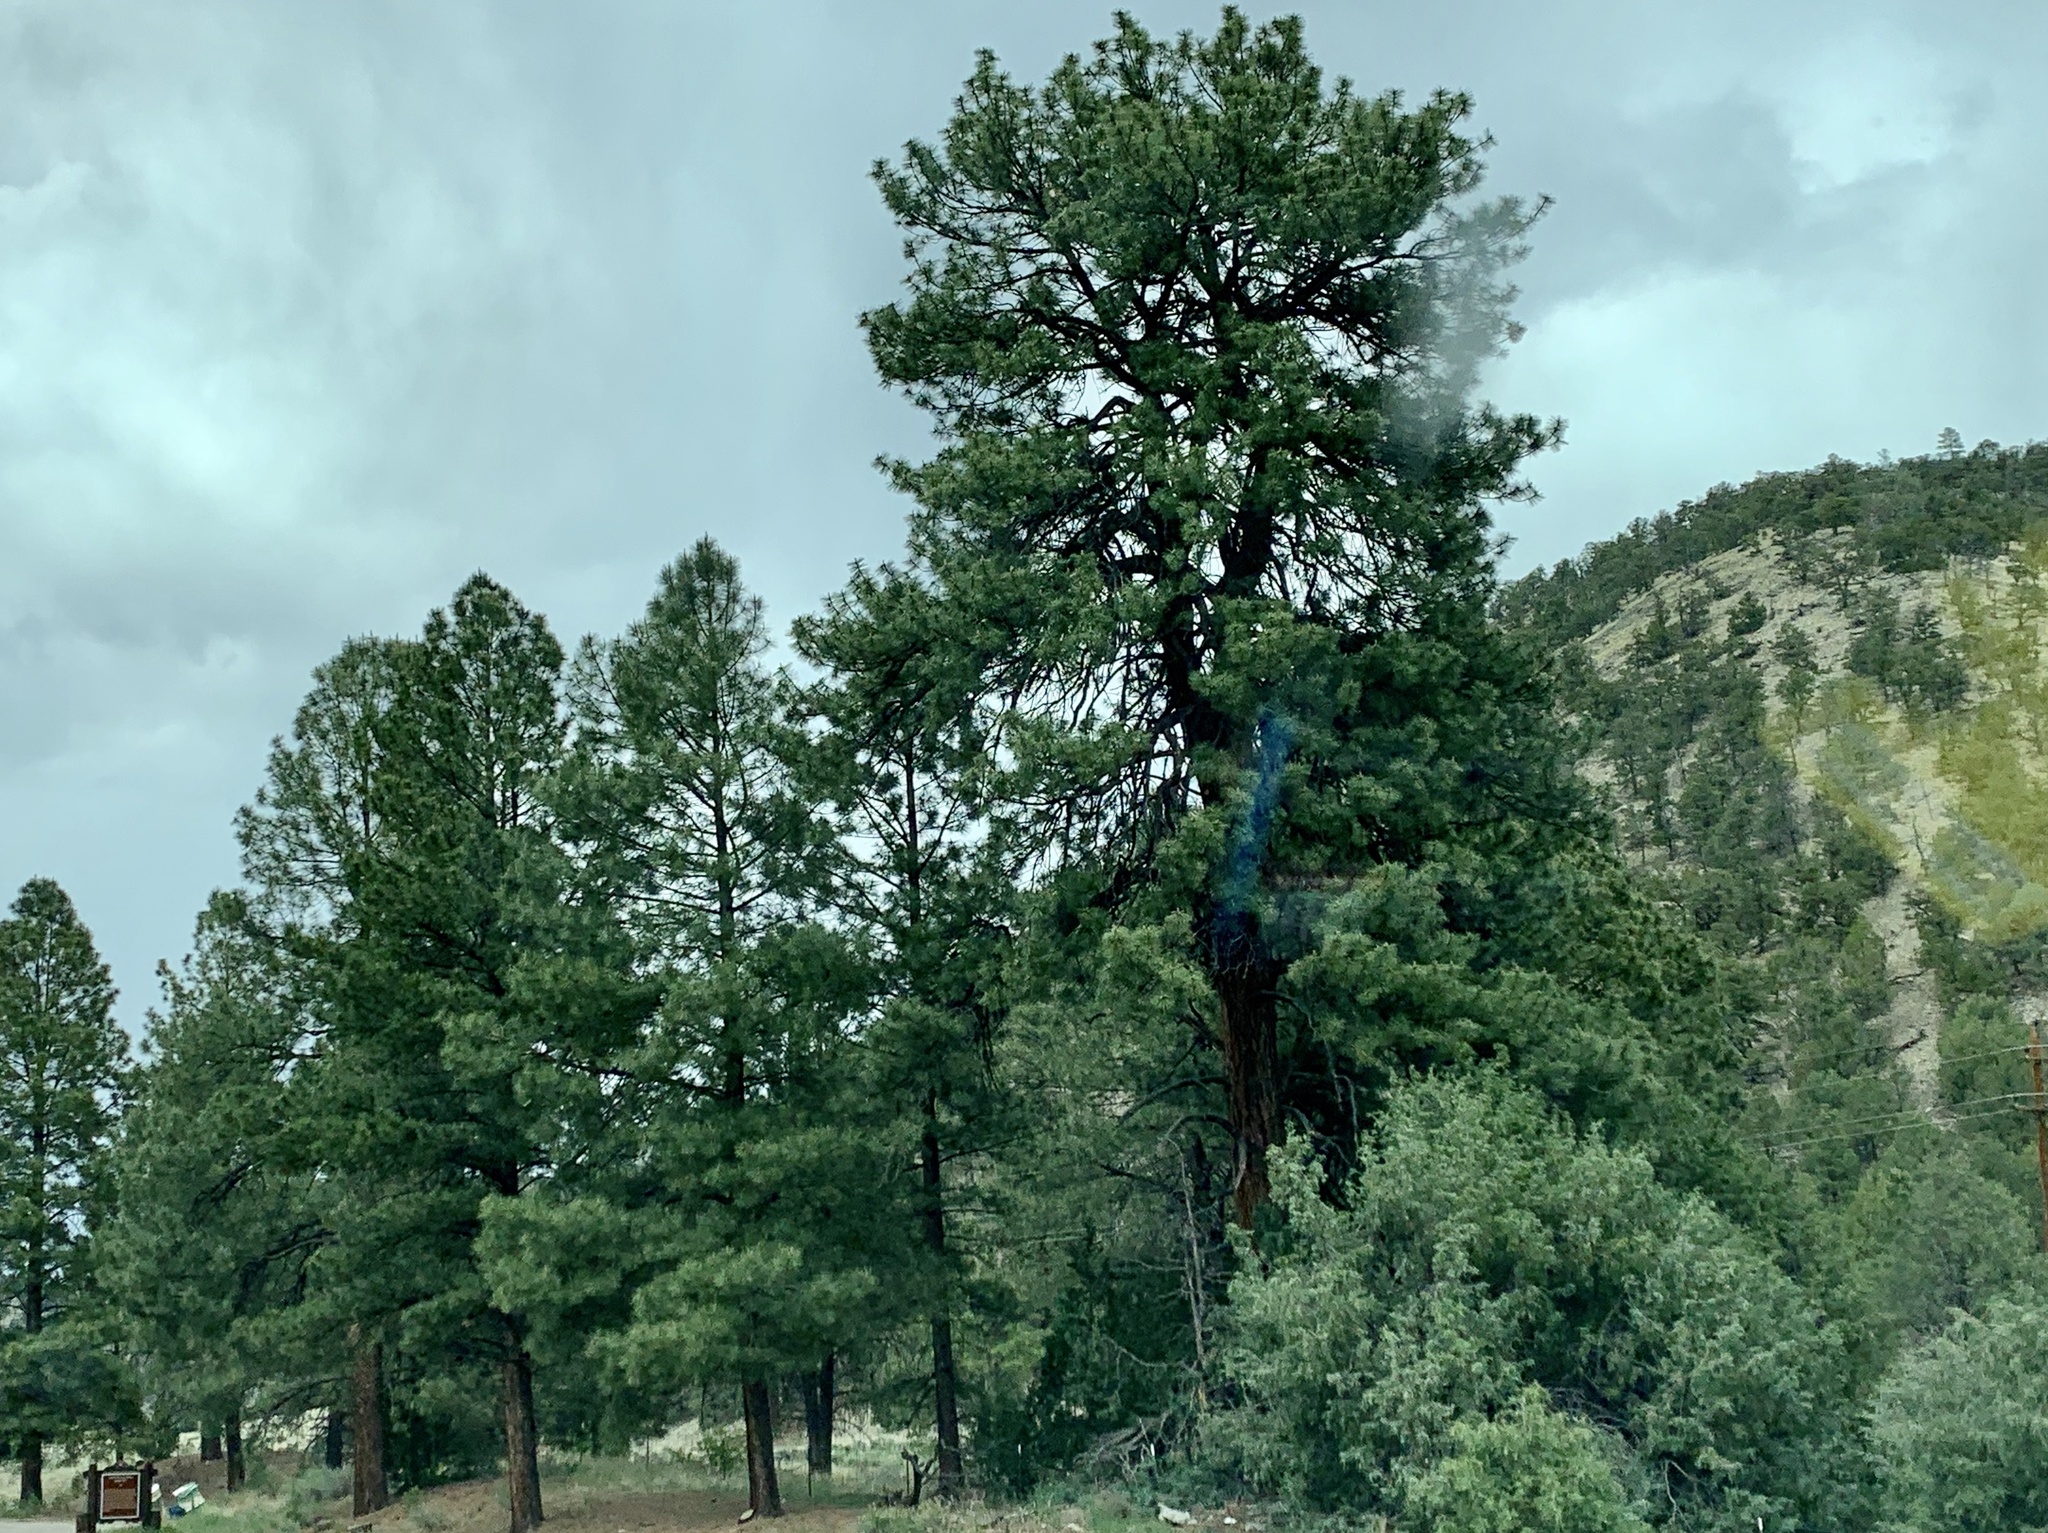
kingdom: Plantae
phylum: Tracheophyta
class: Pinopsida
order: Pinales
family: Pinaceae
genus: Pinus
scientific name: Pinus ponderosa
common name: Western yellow-pine
